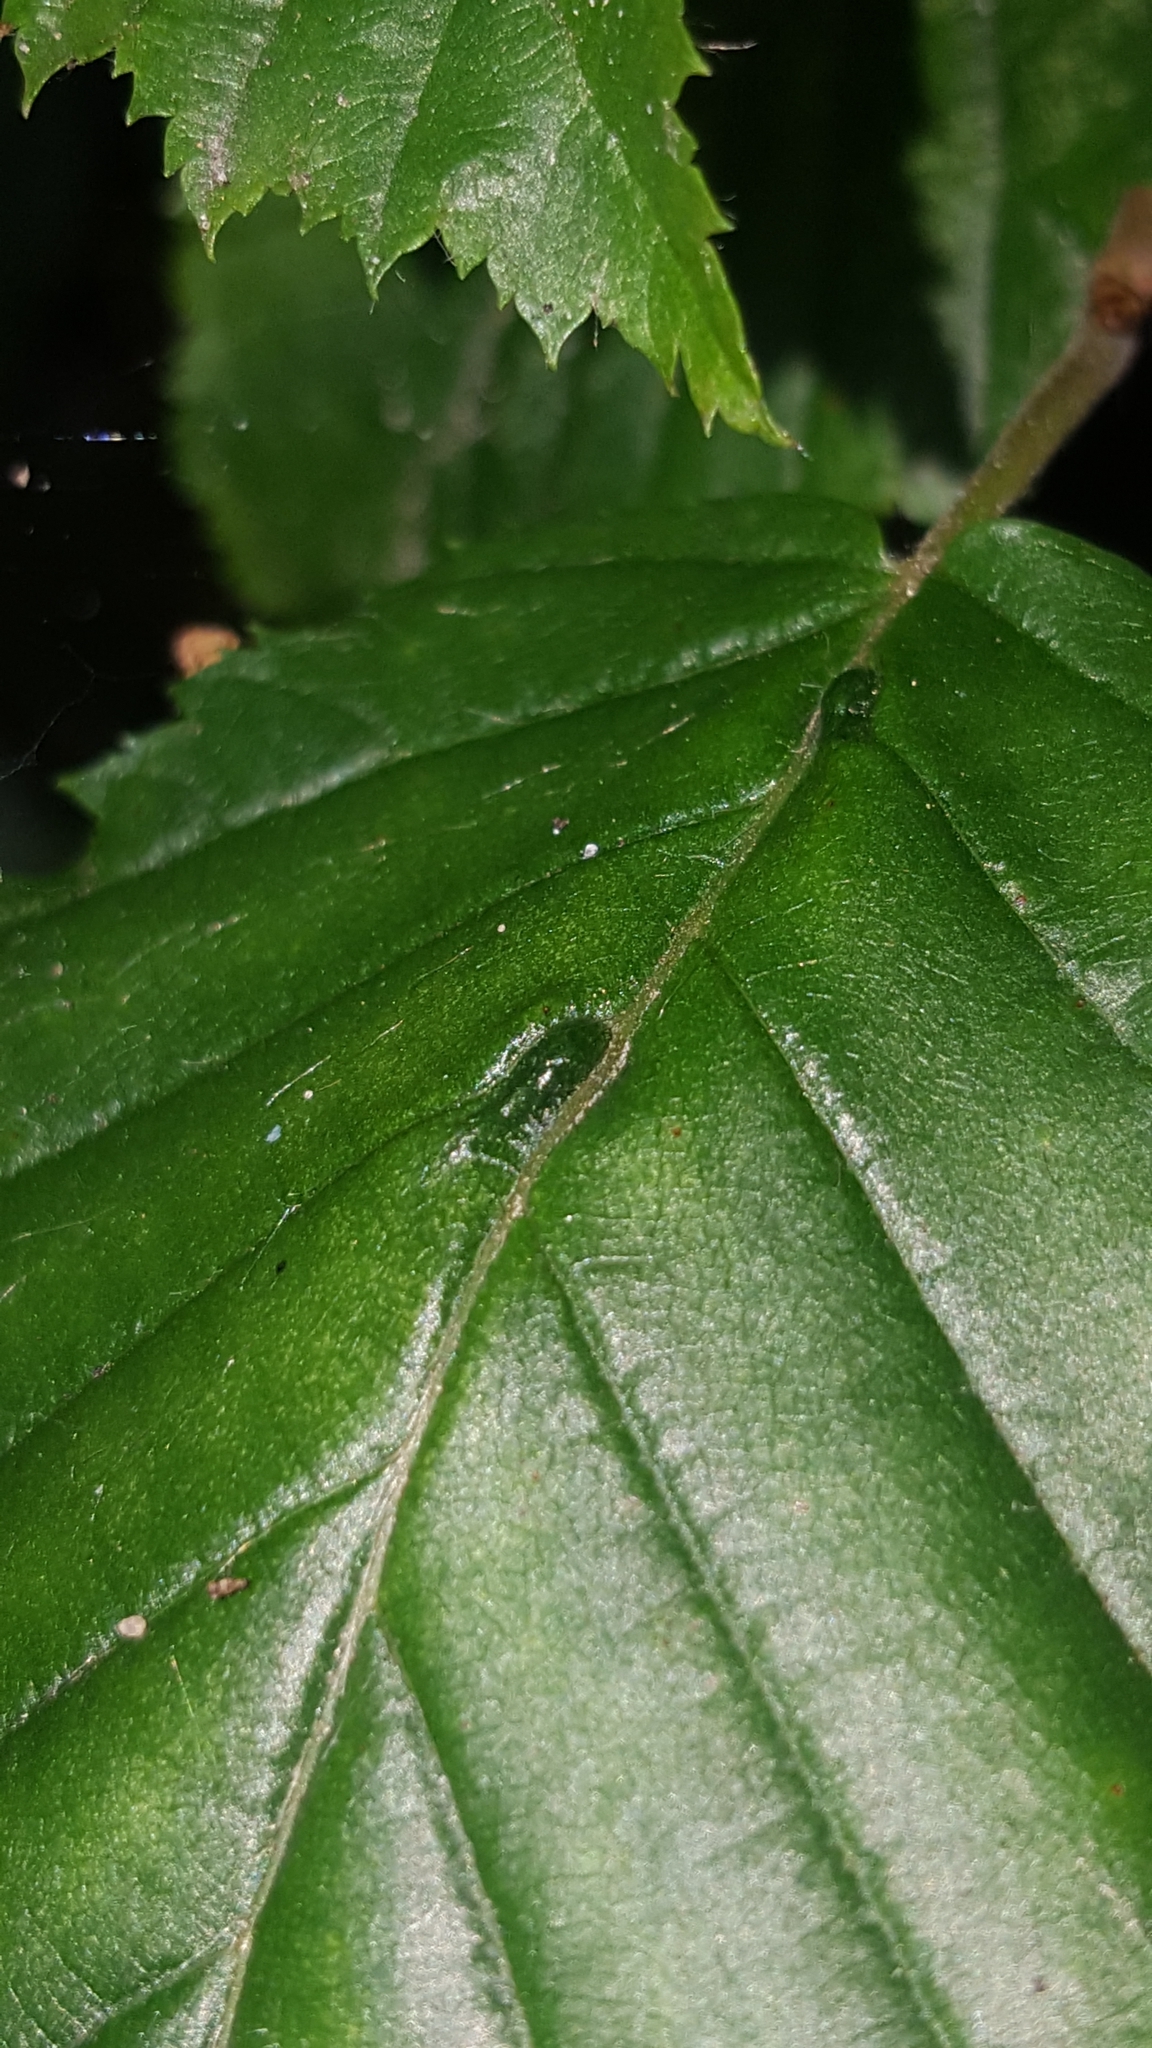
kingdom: Animalia
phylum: Arthropoda
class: Arachnida
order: Trombidiformes
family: Eriophyidae
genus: Aceria
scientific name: Aceria tenellus
